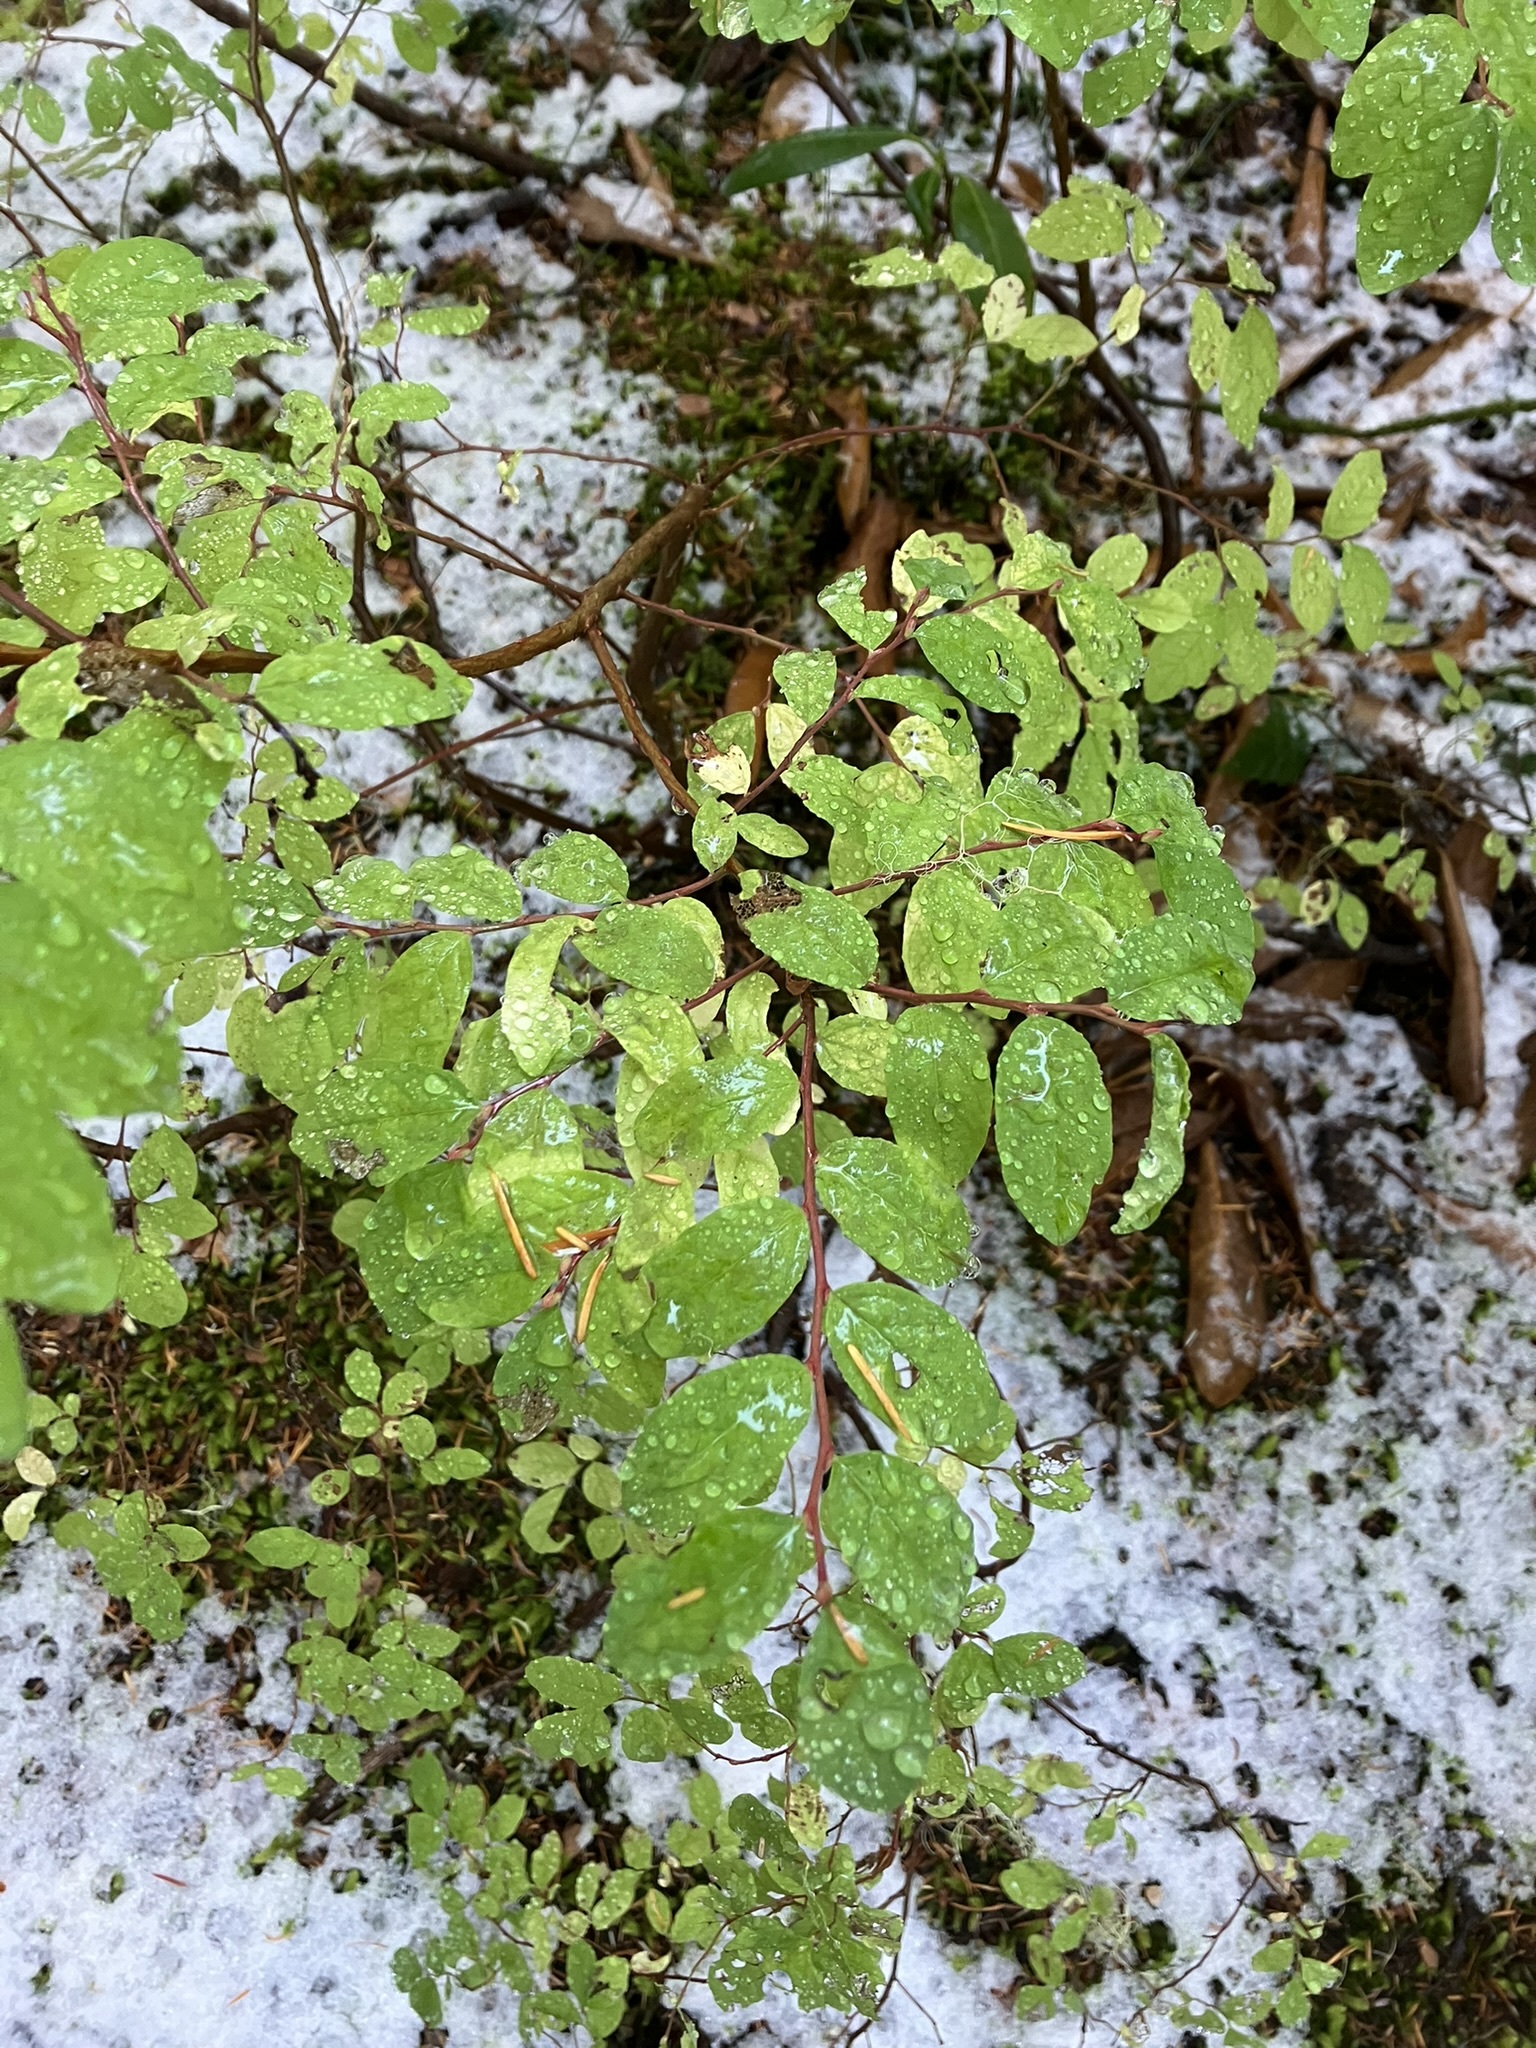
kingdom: Plantae
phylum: Tracheophyta
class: Magnoliopsida
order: Ericales
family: Ericaceae
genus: Vaccinium
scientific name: Vaccinium ovalifolium
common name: Early blueberry
